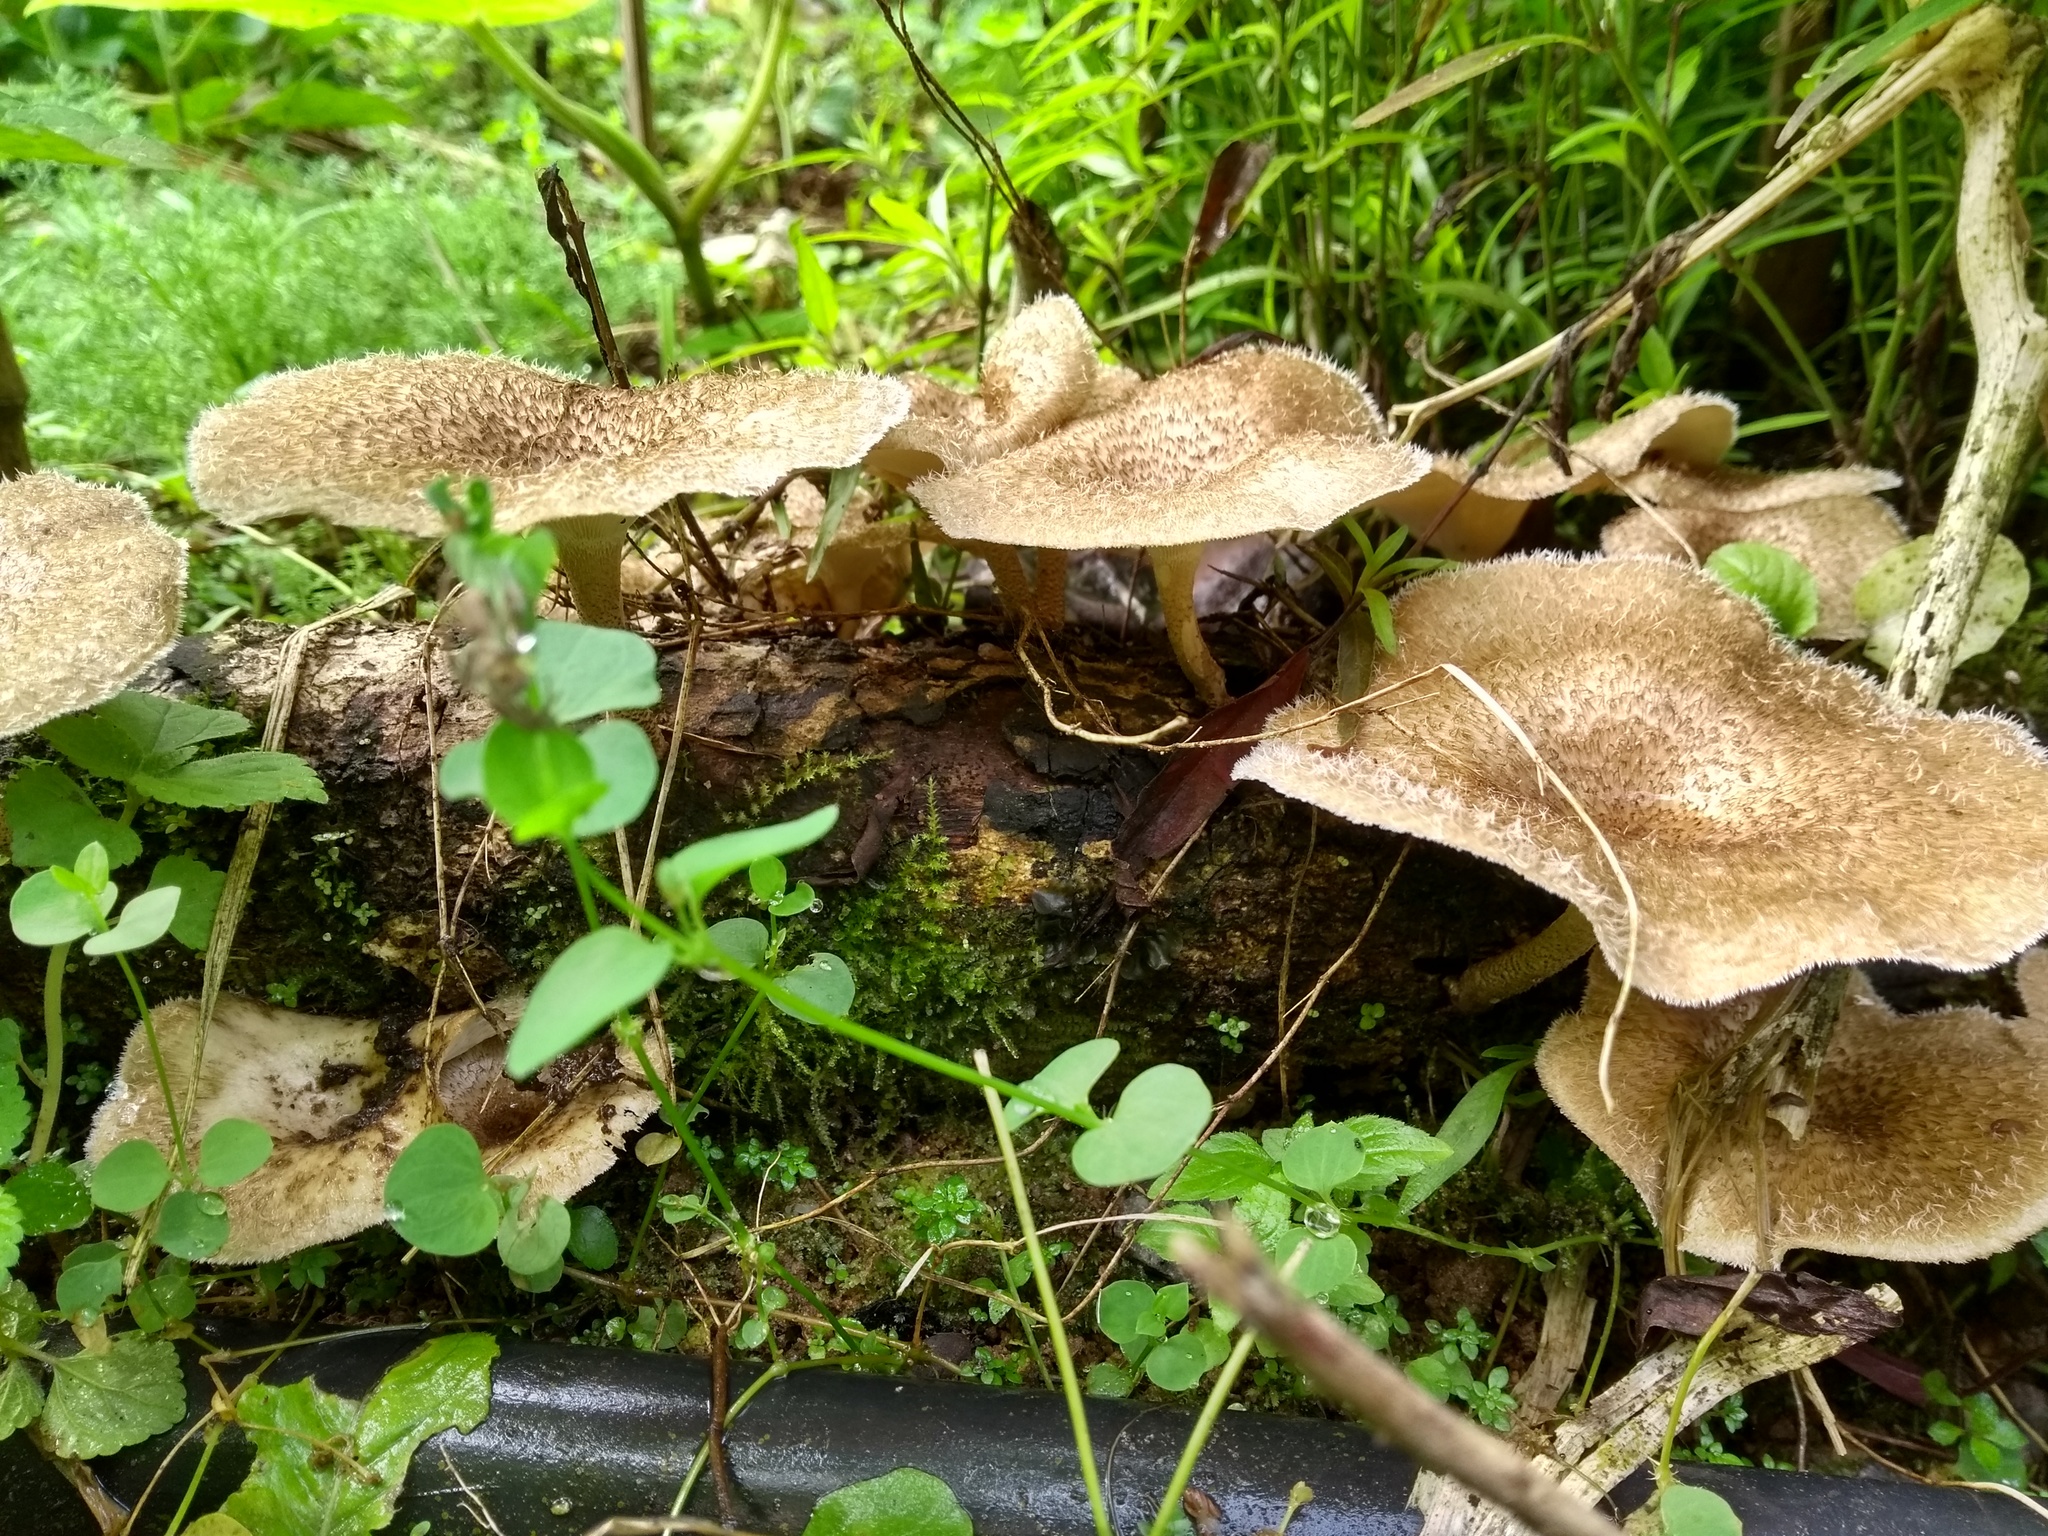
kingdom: Fungi
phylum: Basidiomycota
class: Agaricomycetes
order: Polyporales
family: Polyporaceae
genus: Lentinus
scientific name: Lentinus crinitus
